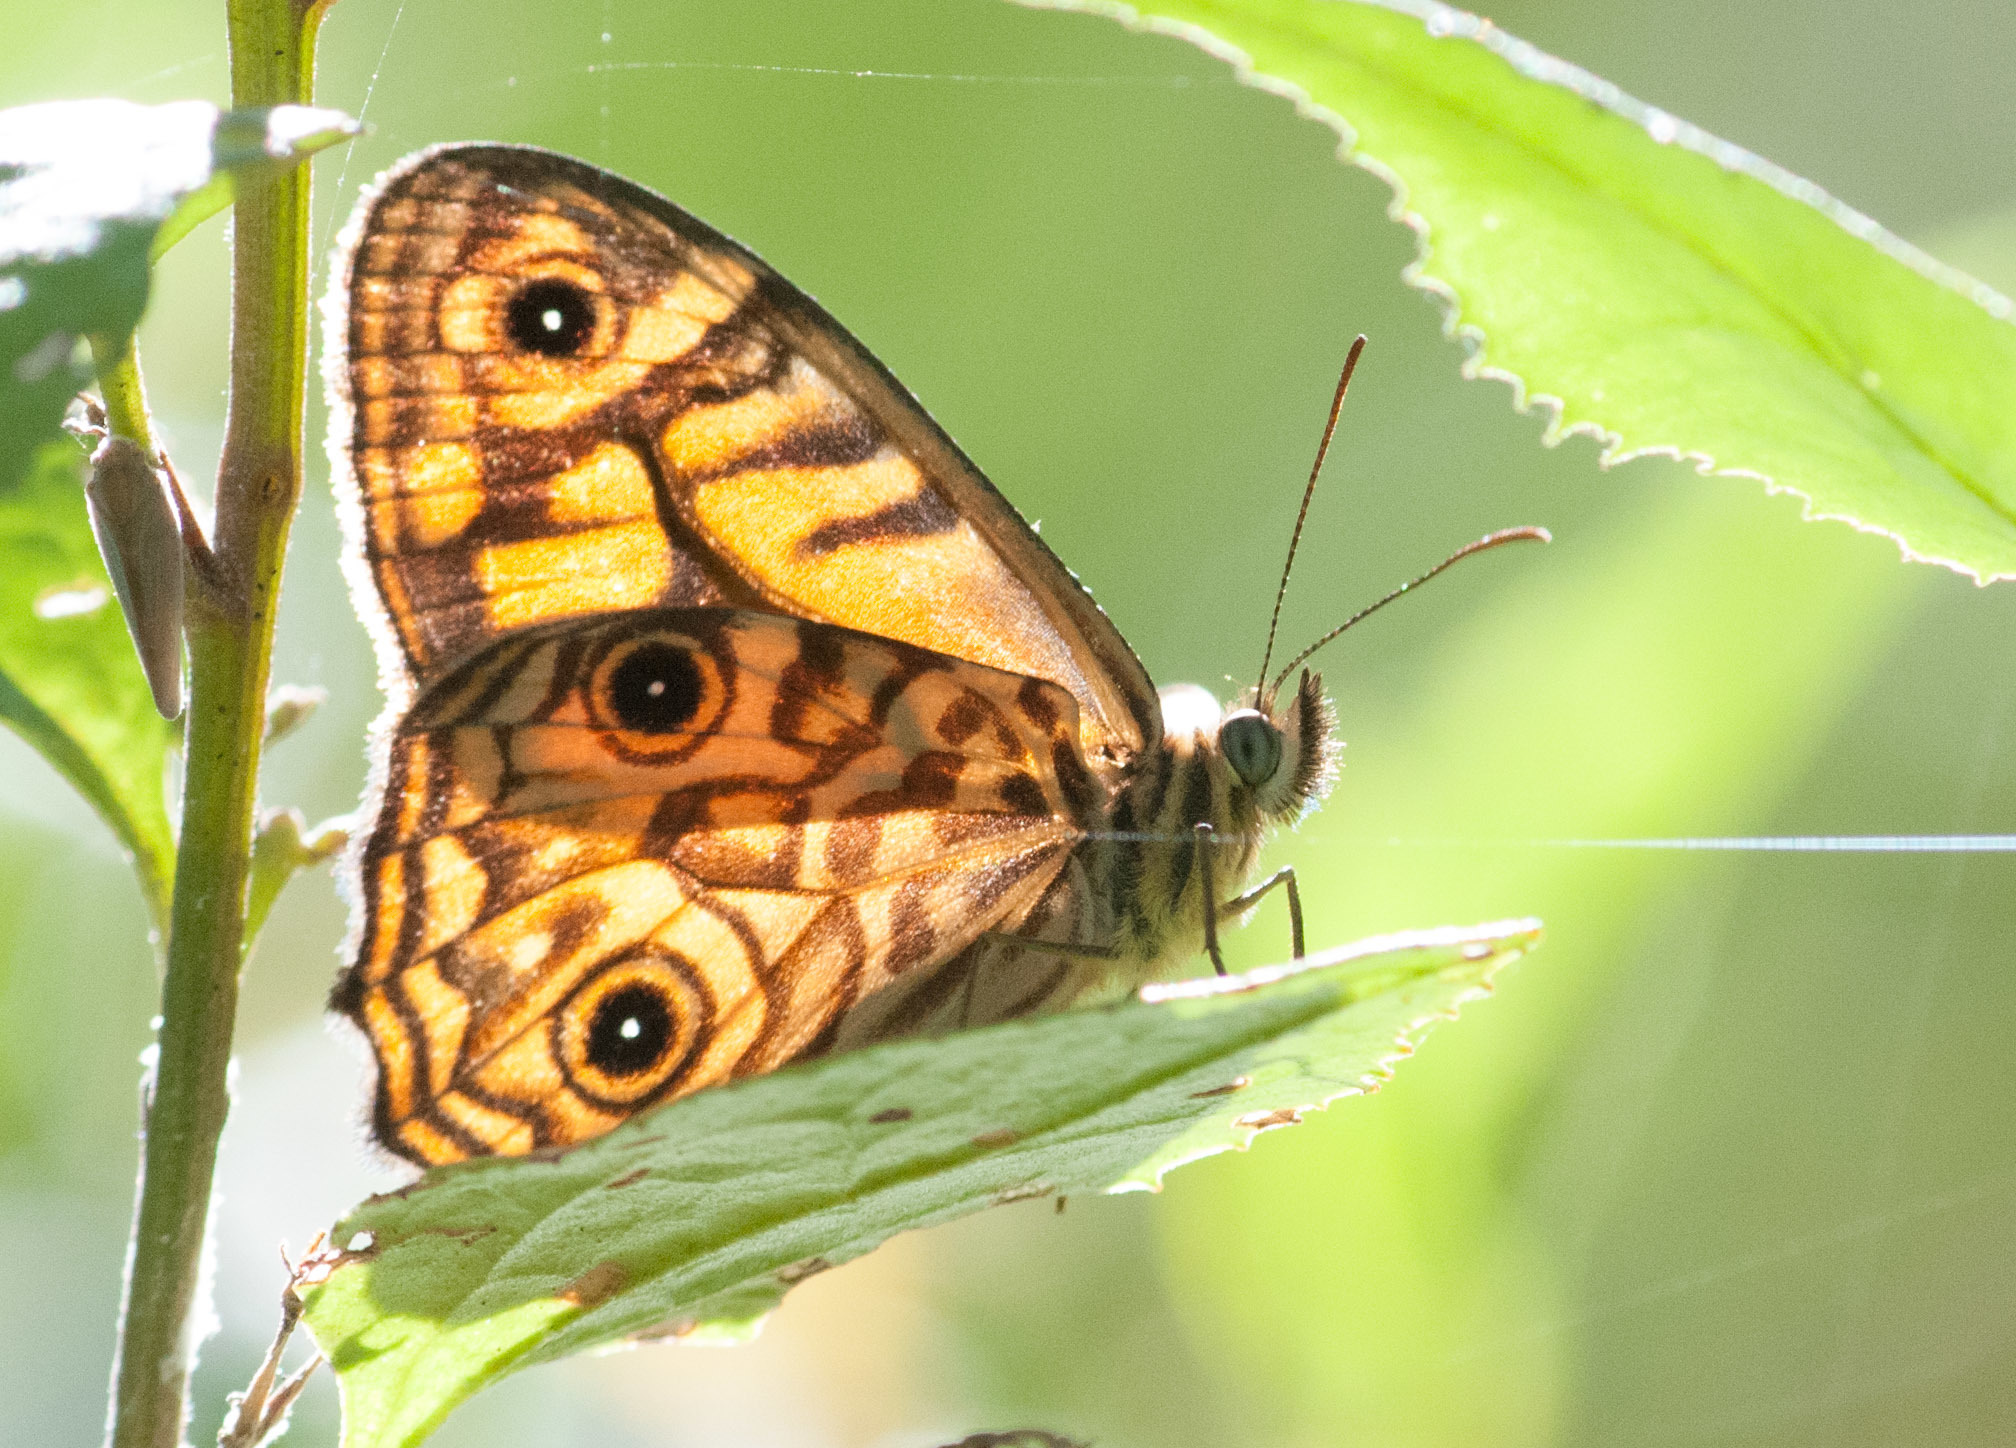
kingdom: Animalia
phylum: Arthropoda
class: Insecta
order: Lepidoptera
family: Nymphalidae
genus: Geitoneura
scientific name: Geitoneura acantha
